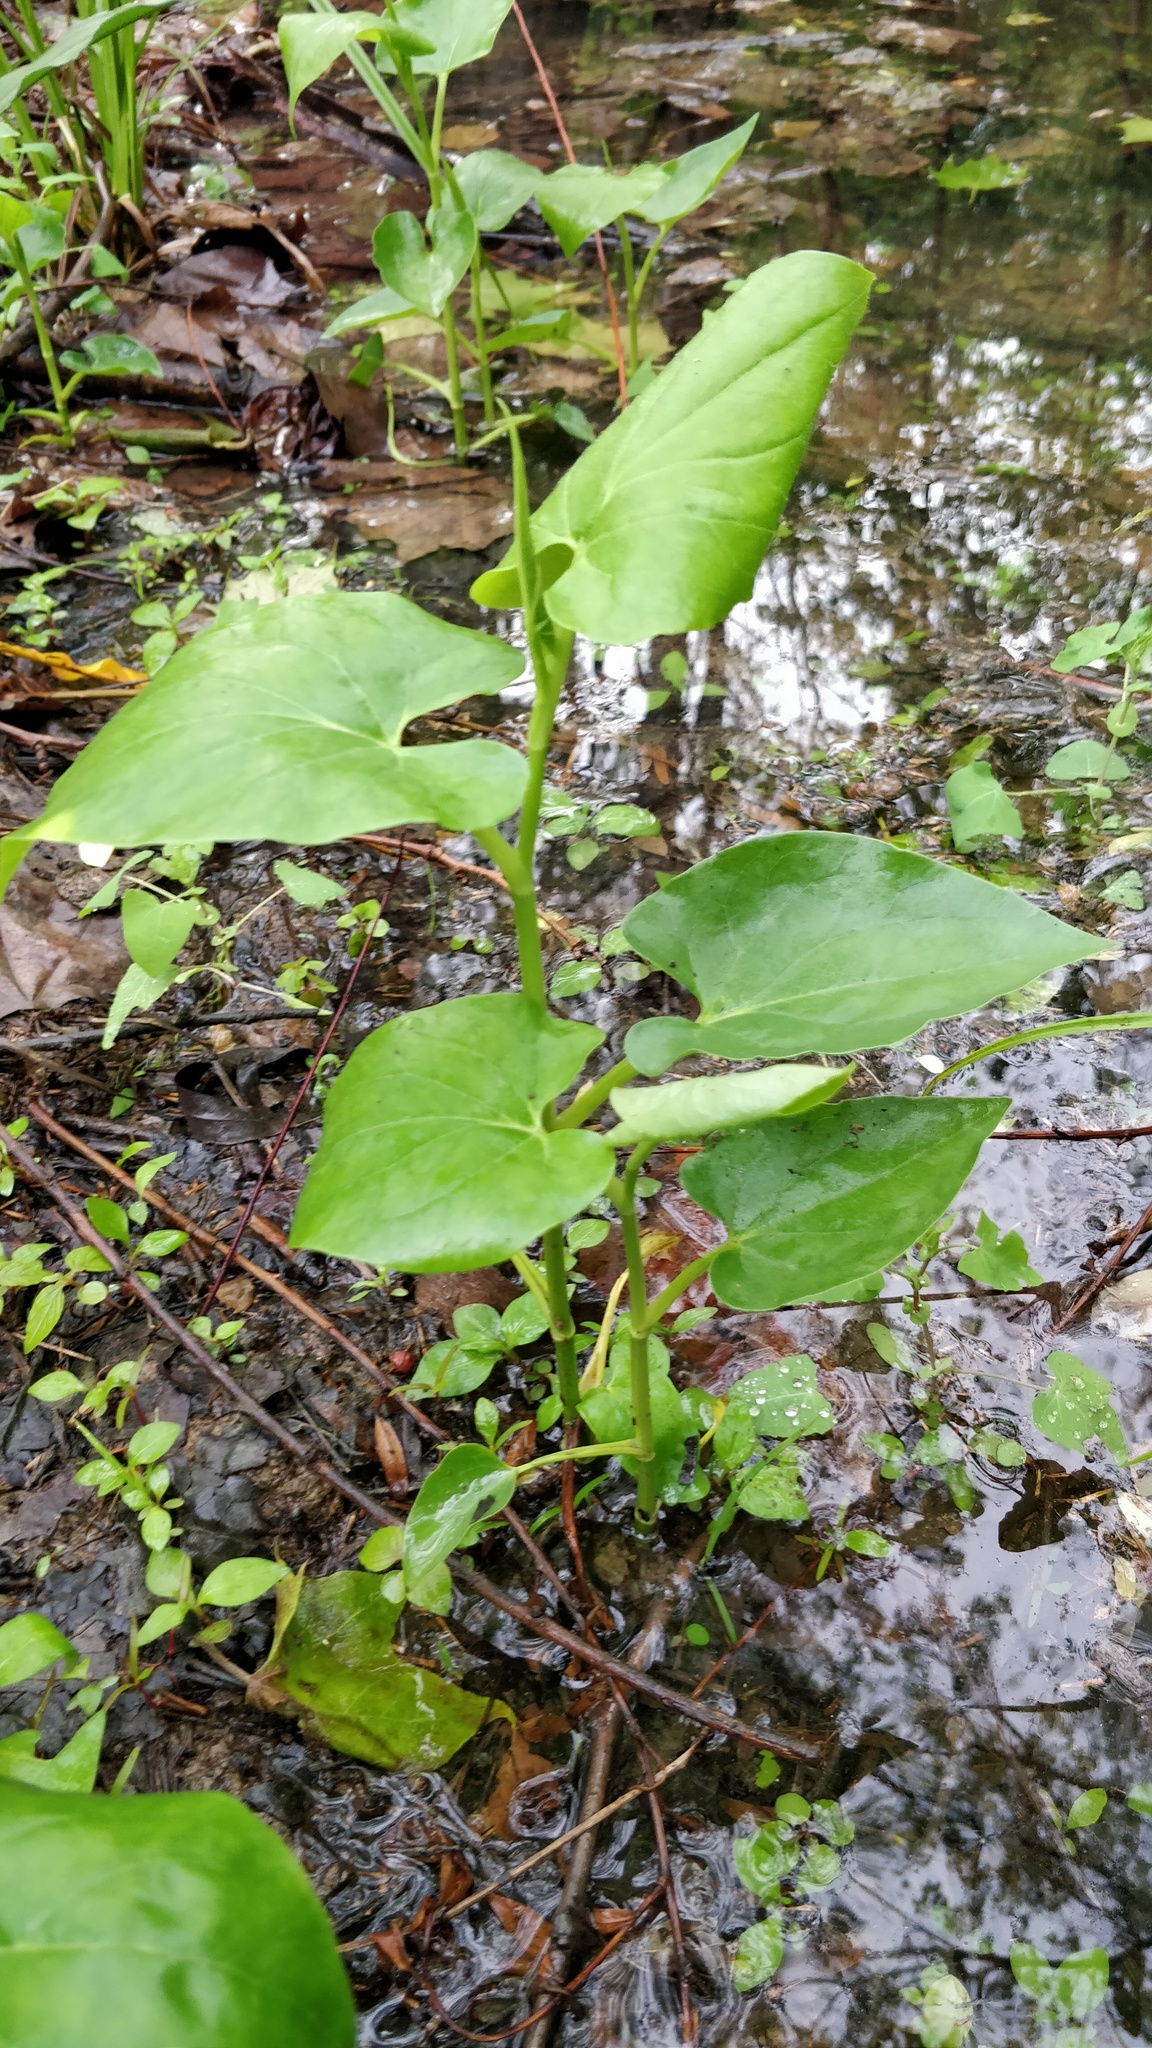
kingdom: Plantae
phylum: Tracheophyta
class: Magnoliopsida
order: Piperales
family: Saururaceae
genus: Saururus
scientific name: Saururus cernuus
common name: Lizard's-tail
